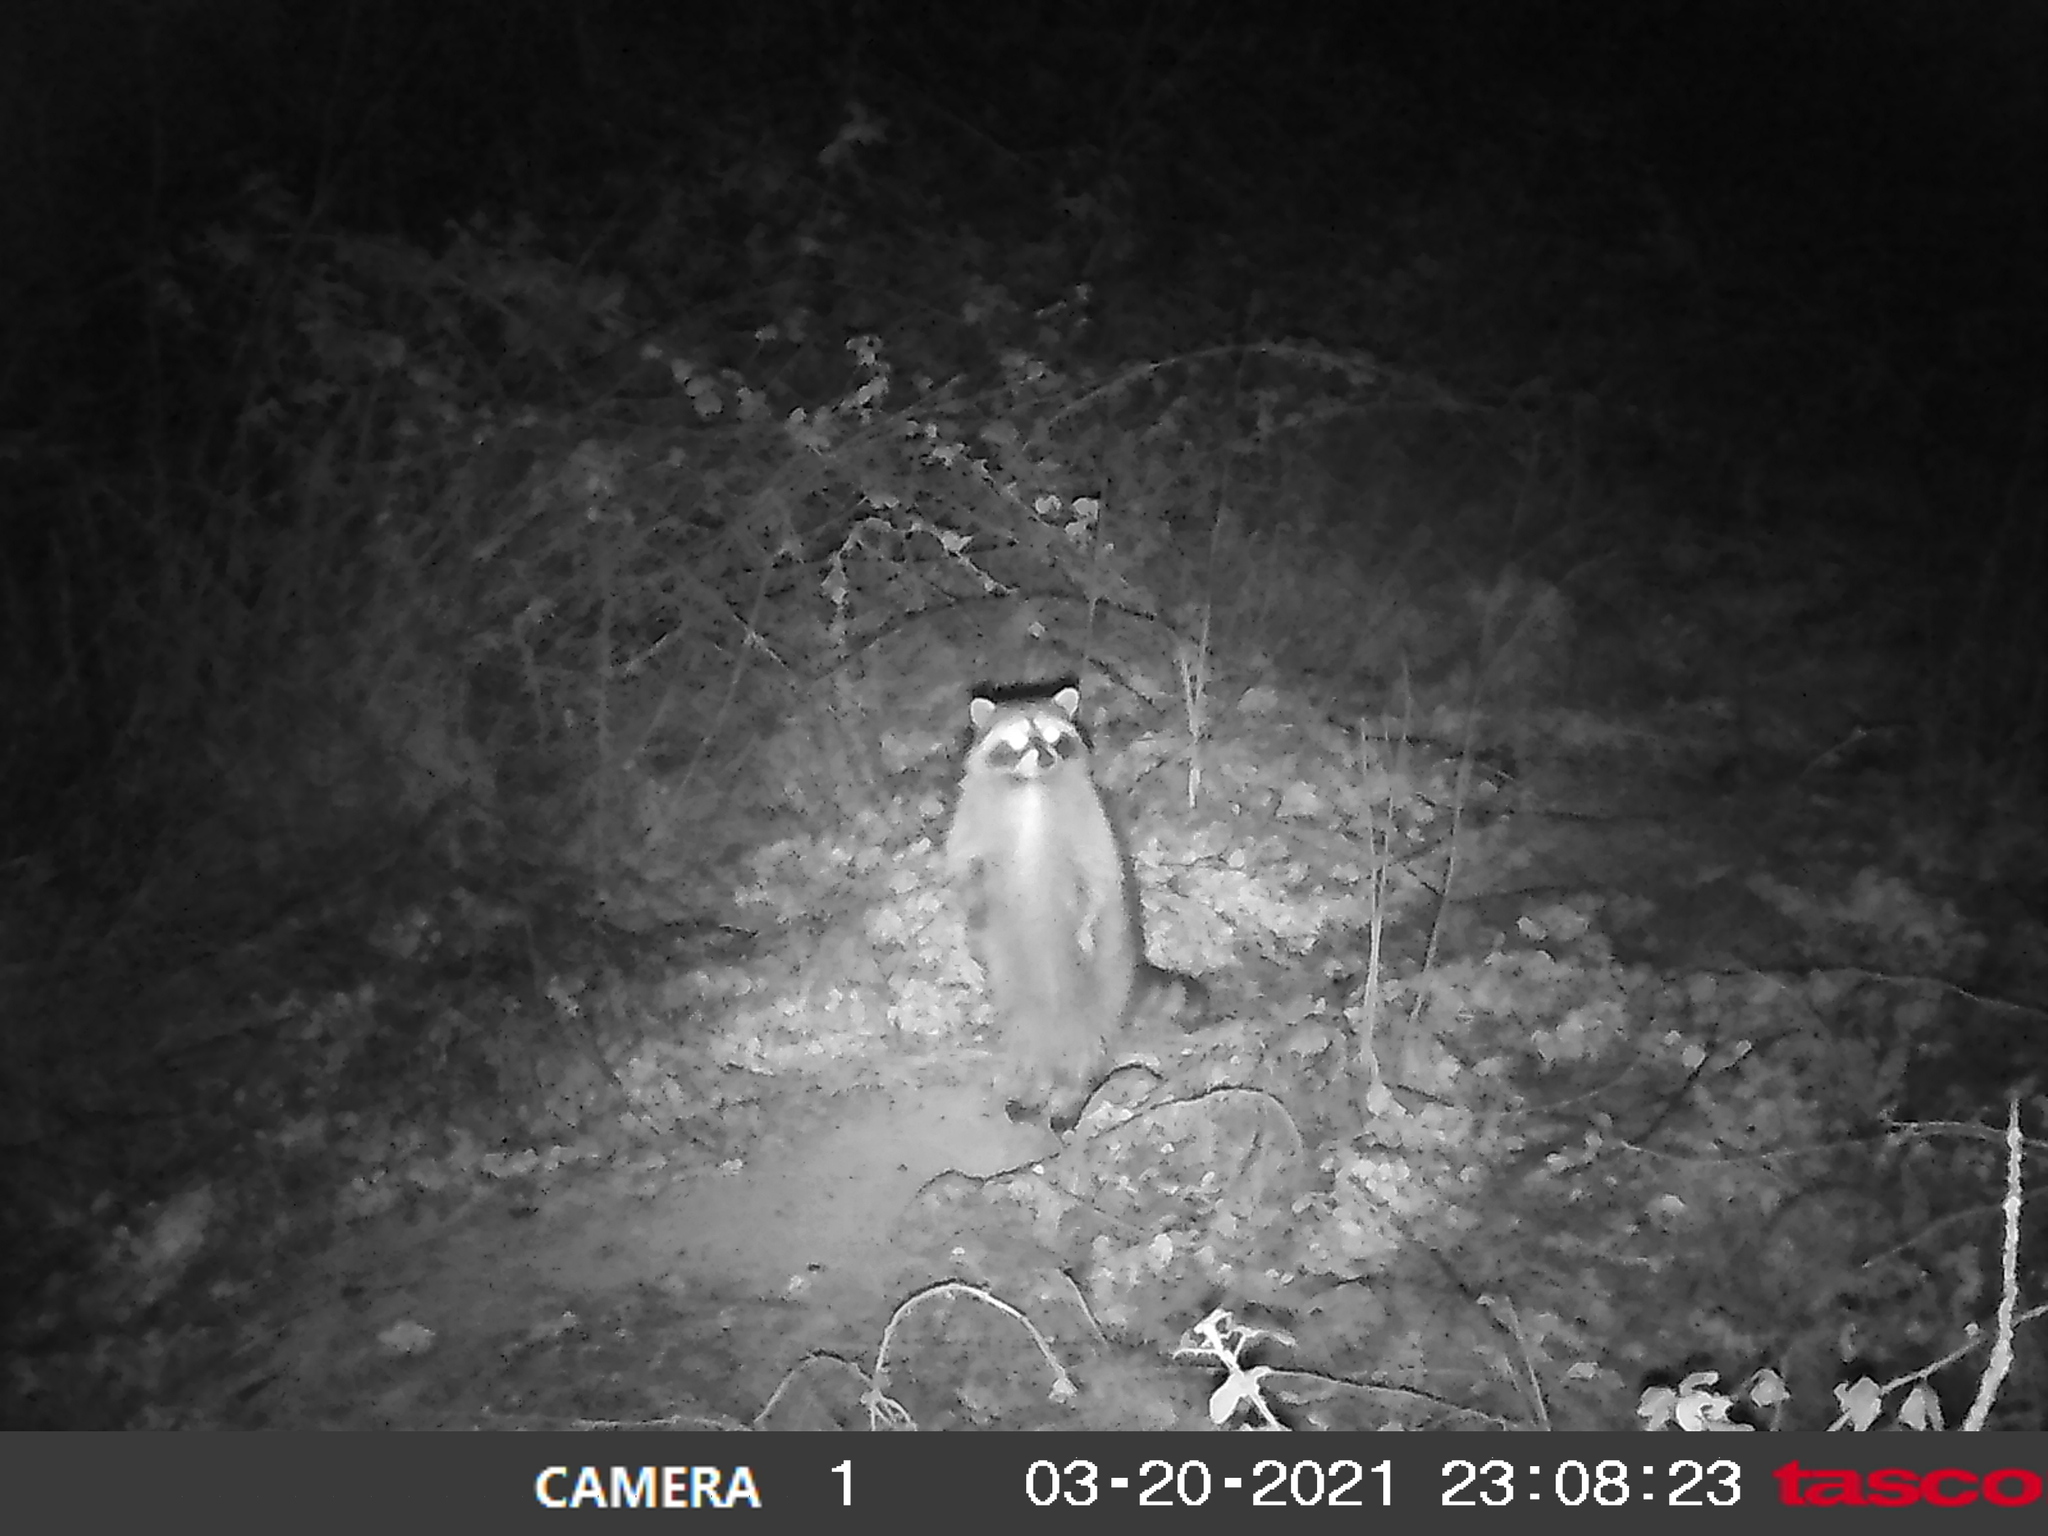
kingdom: Animalia
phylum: Chordata
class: Mammalia
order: Carnivora
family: Procyonidae
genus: Procyon
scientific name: Procyon lotor
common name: Raccoon
